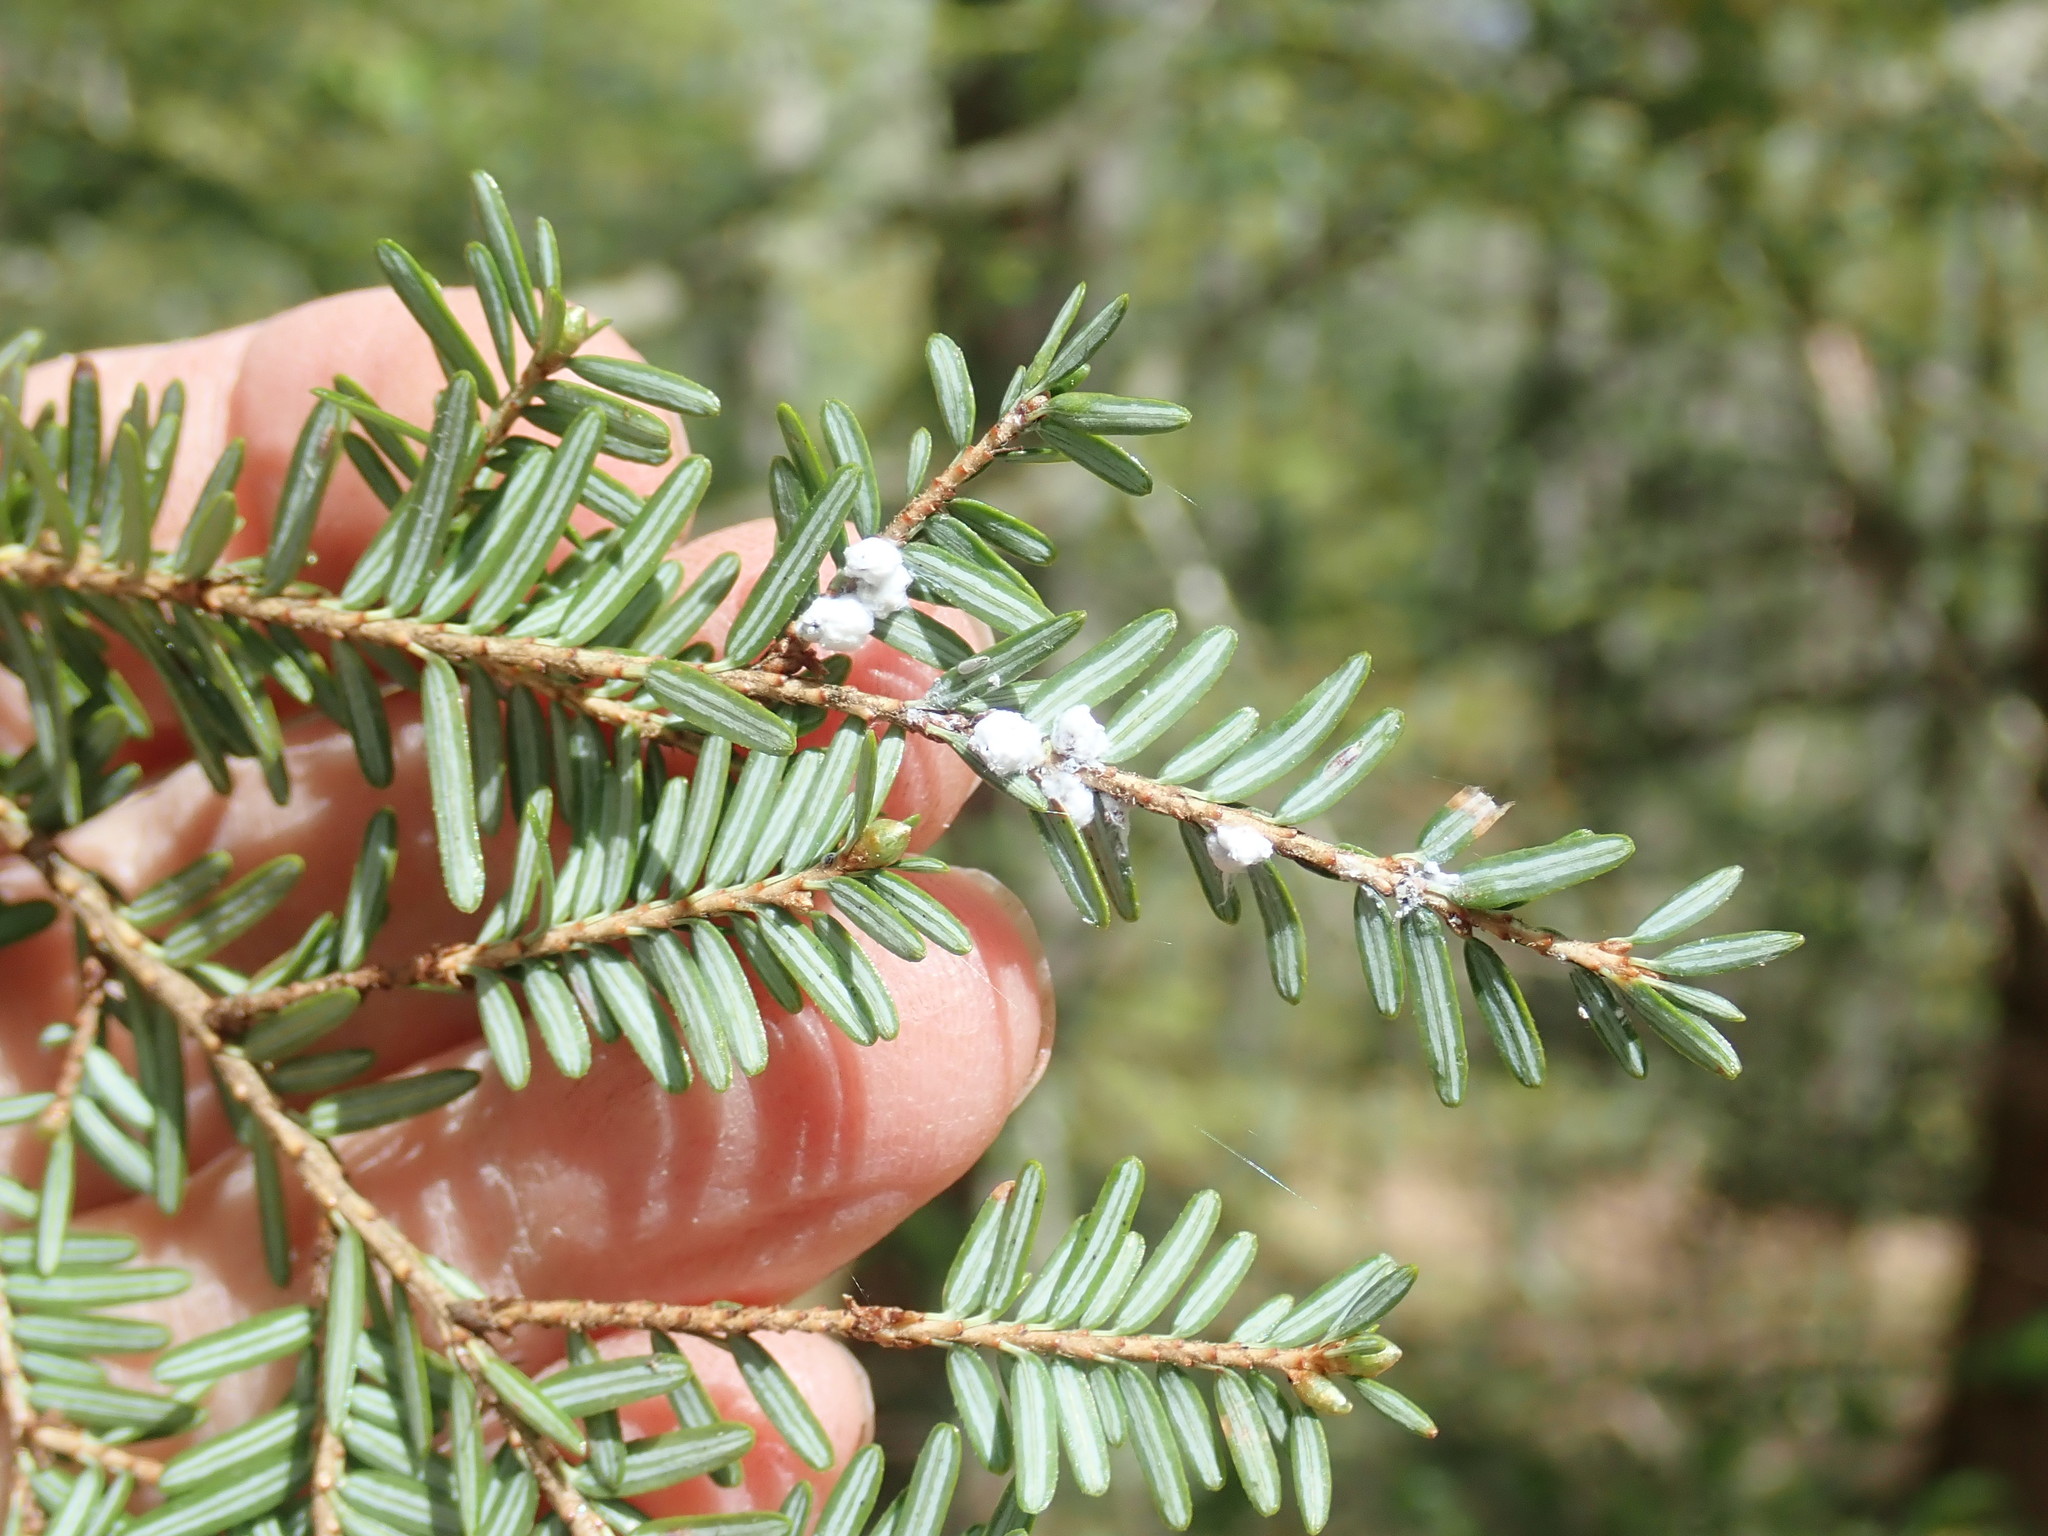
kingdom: Animalia
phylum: Arthropoda
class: Insecta
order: Hemiptera
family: Adelgidae
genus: Adelges
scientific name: Adelges tsugae
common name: Hemlock woolly adelgid
